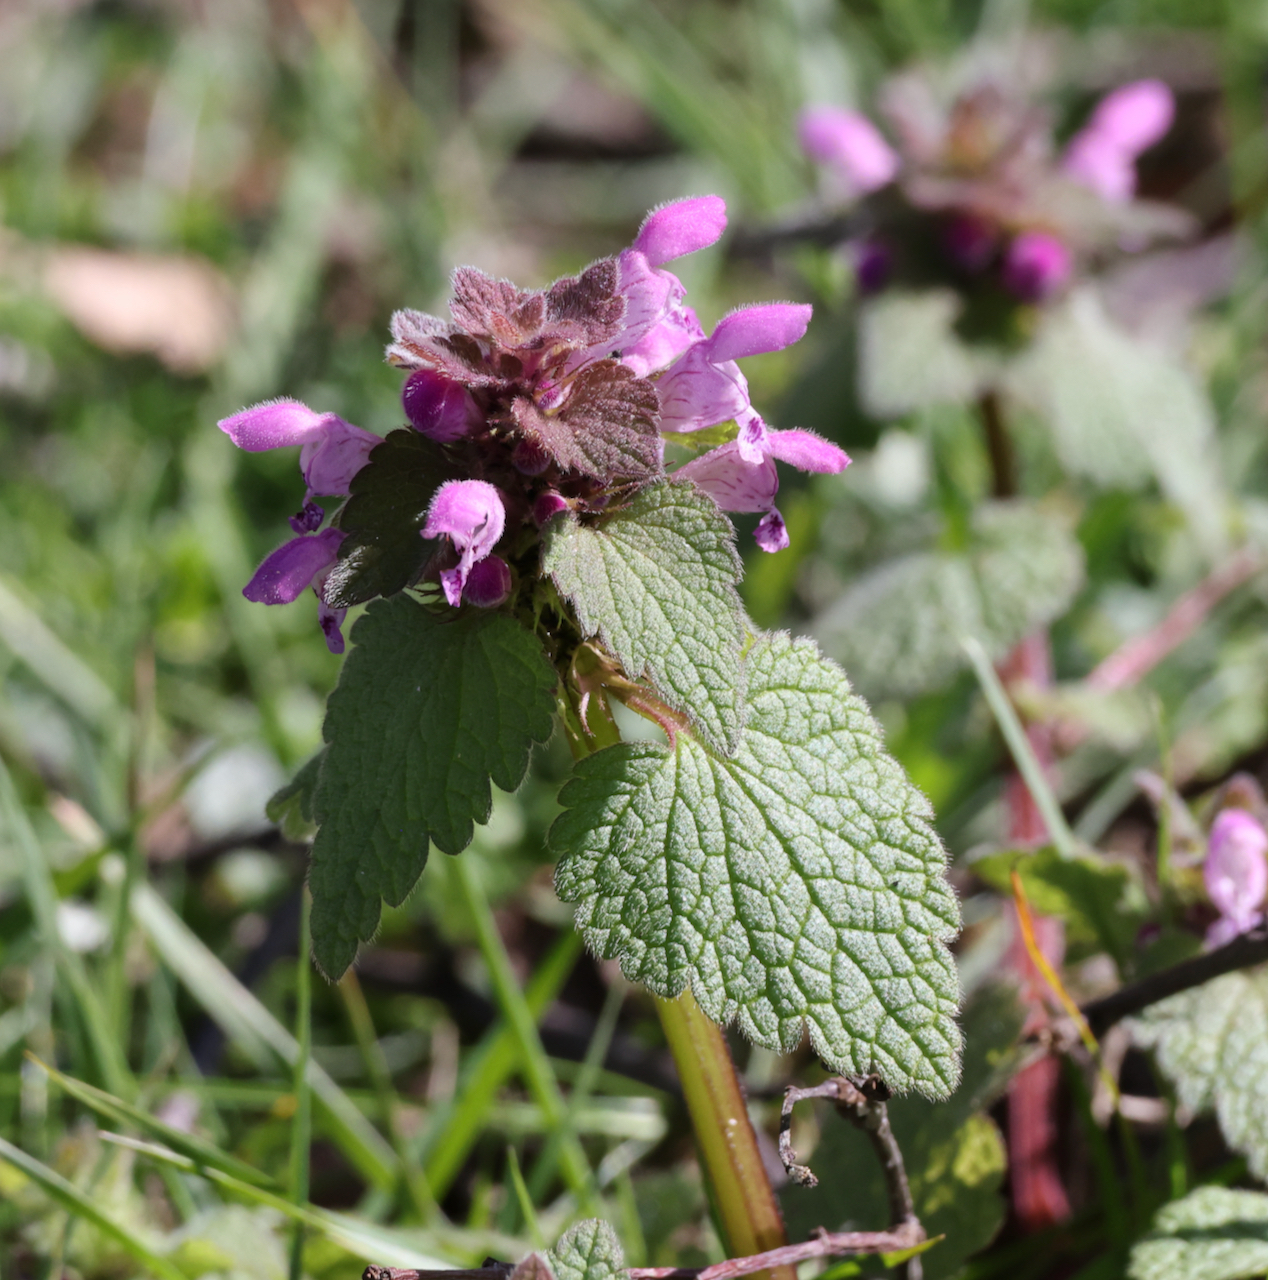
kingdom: Plantae
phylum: Tracheophyta
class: Magnoliopsida
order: Lamiales
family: Lamiaceae
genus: Lamium
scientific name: Lamium purpureum
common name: Red dead-nettle
